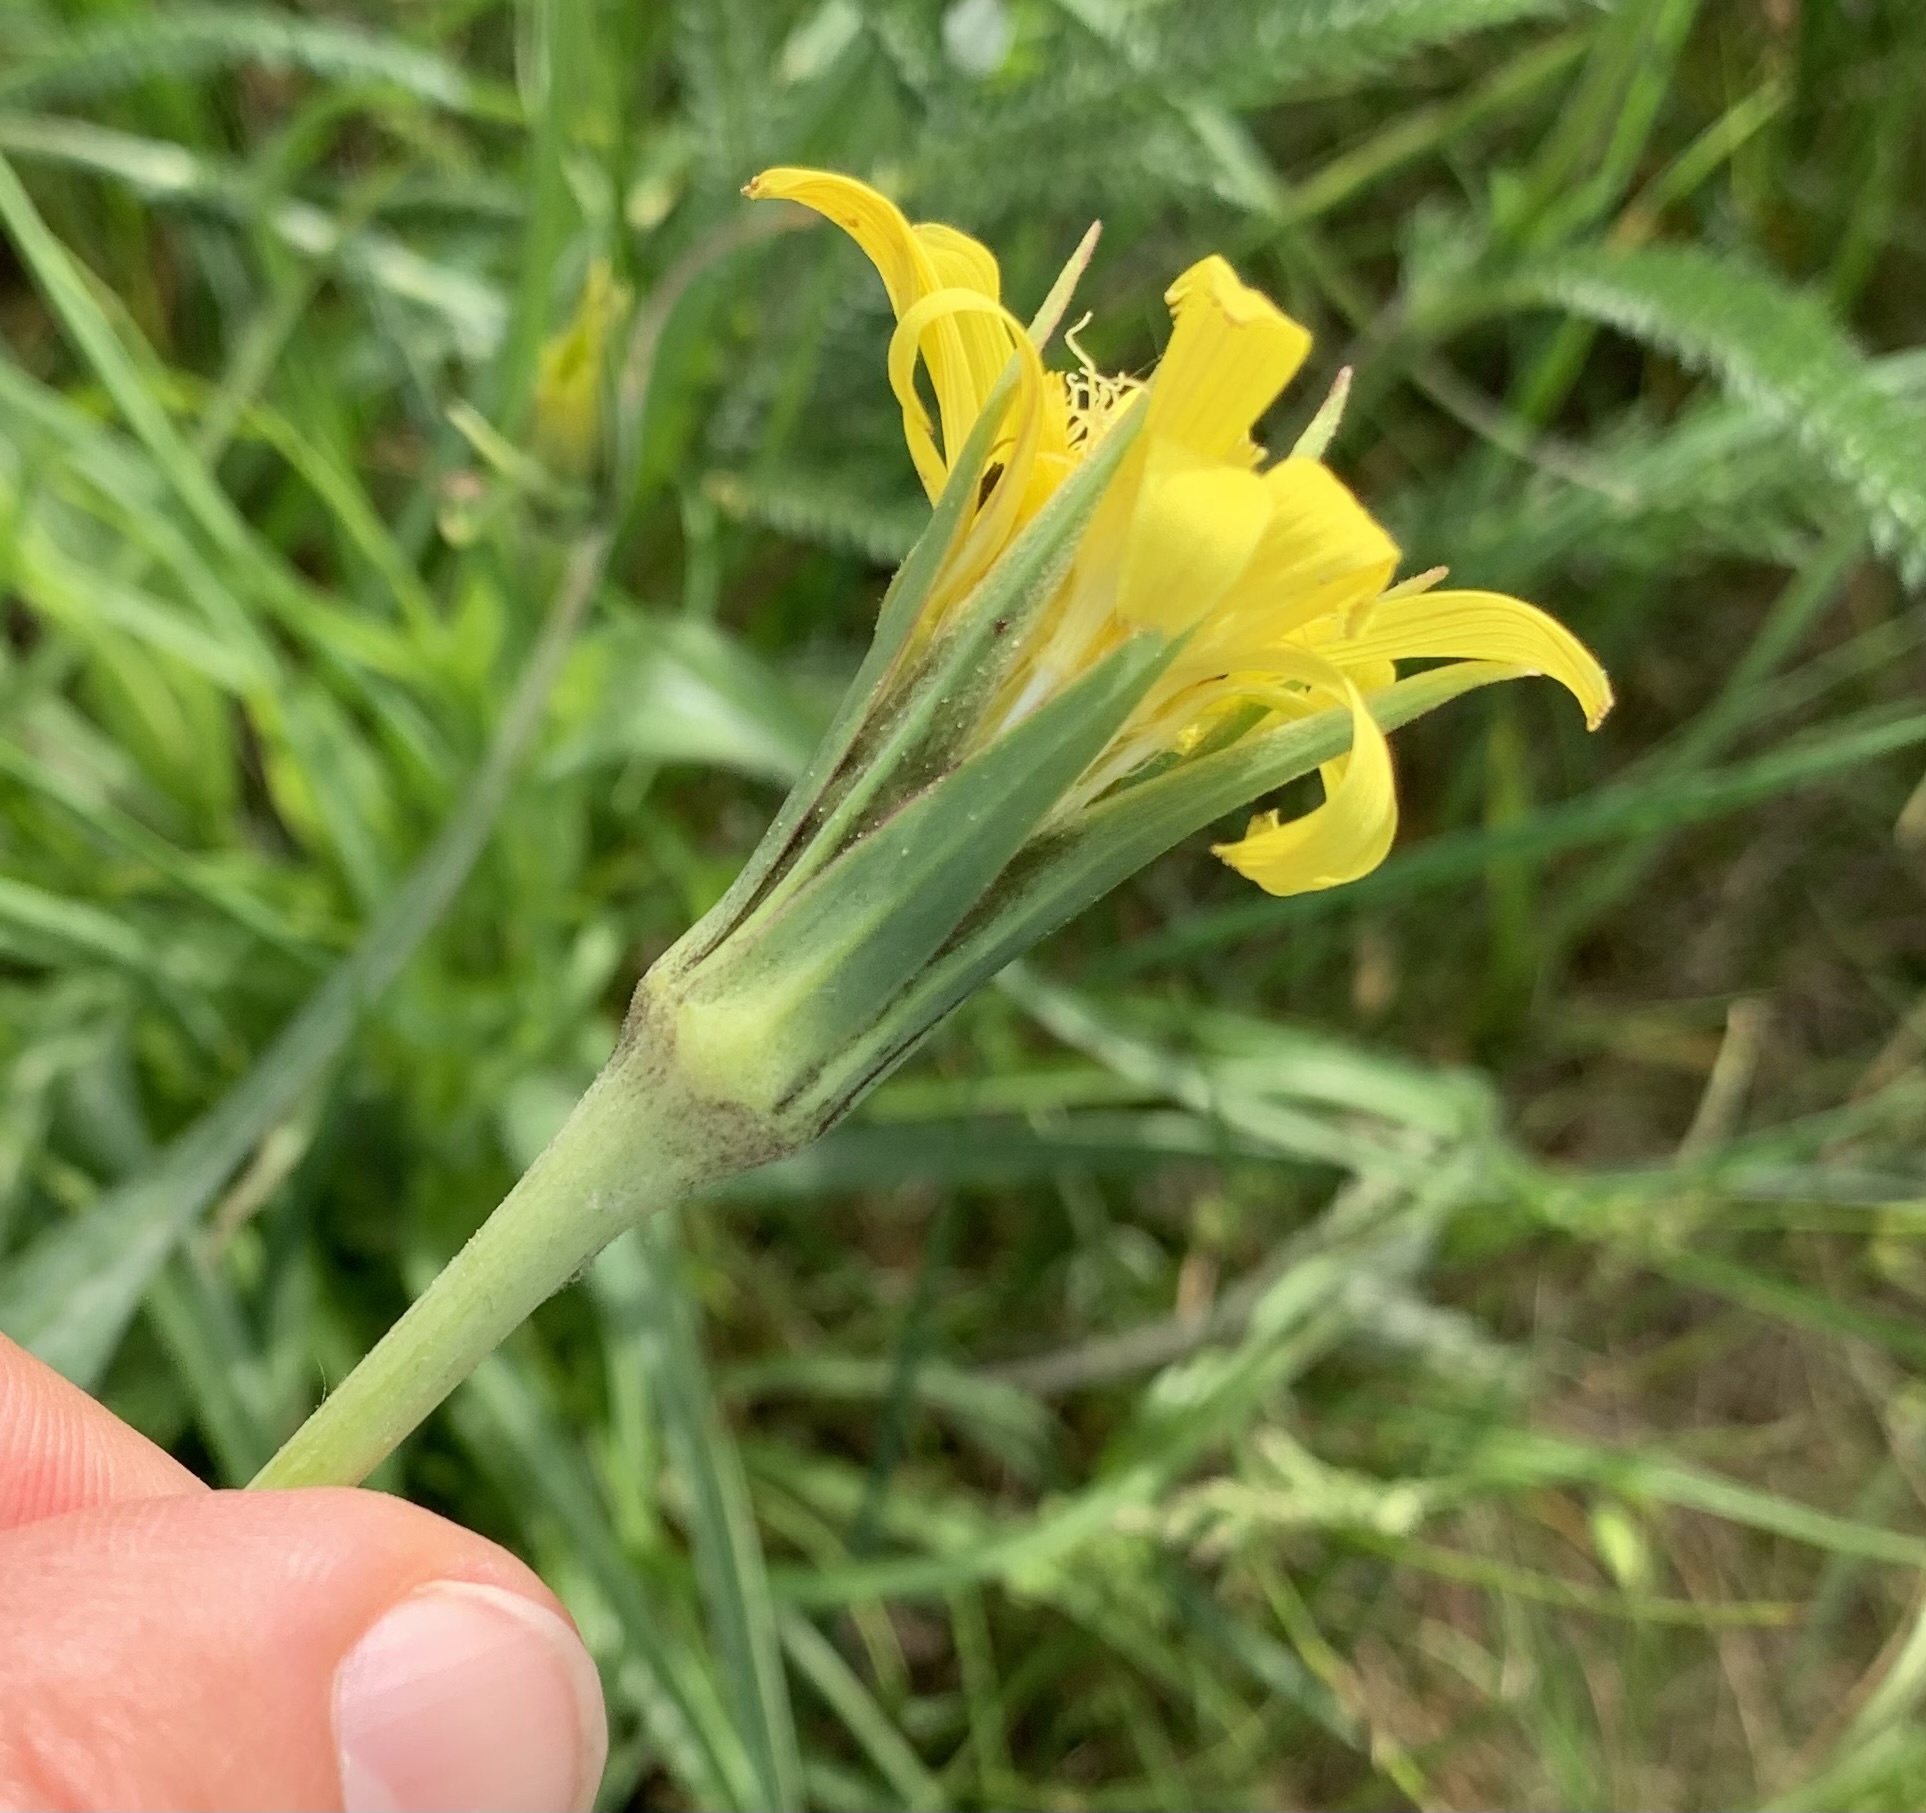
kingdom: Plantae
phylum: Tracheophyta
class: Magnoliopsida
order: Asterales
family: Asteraceae
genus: Tragopogon
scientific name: Tragopogon pratensis
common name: Goat's-beard
